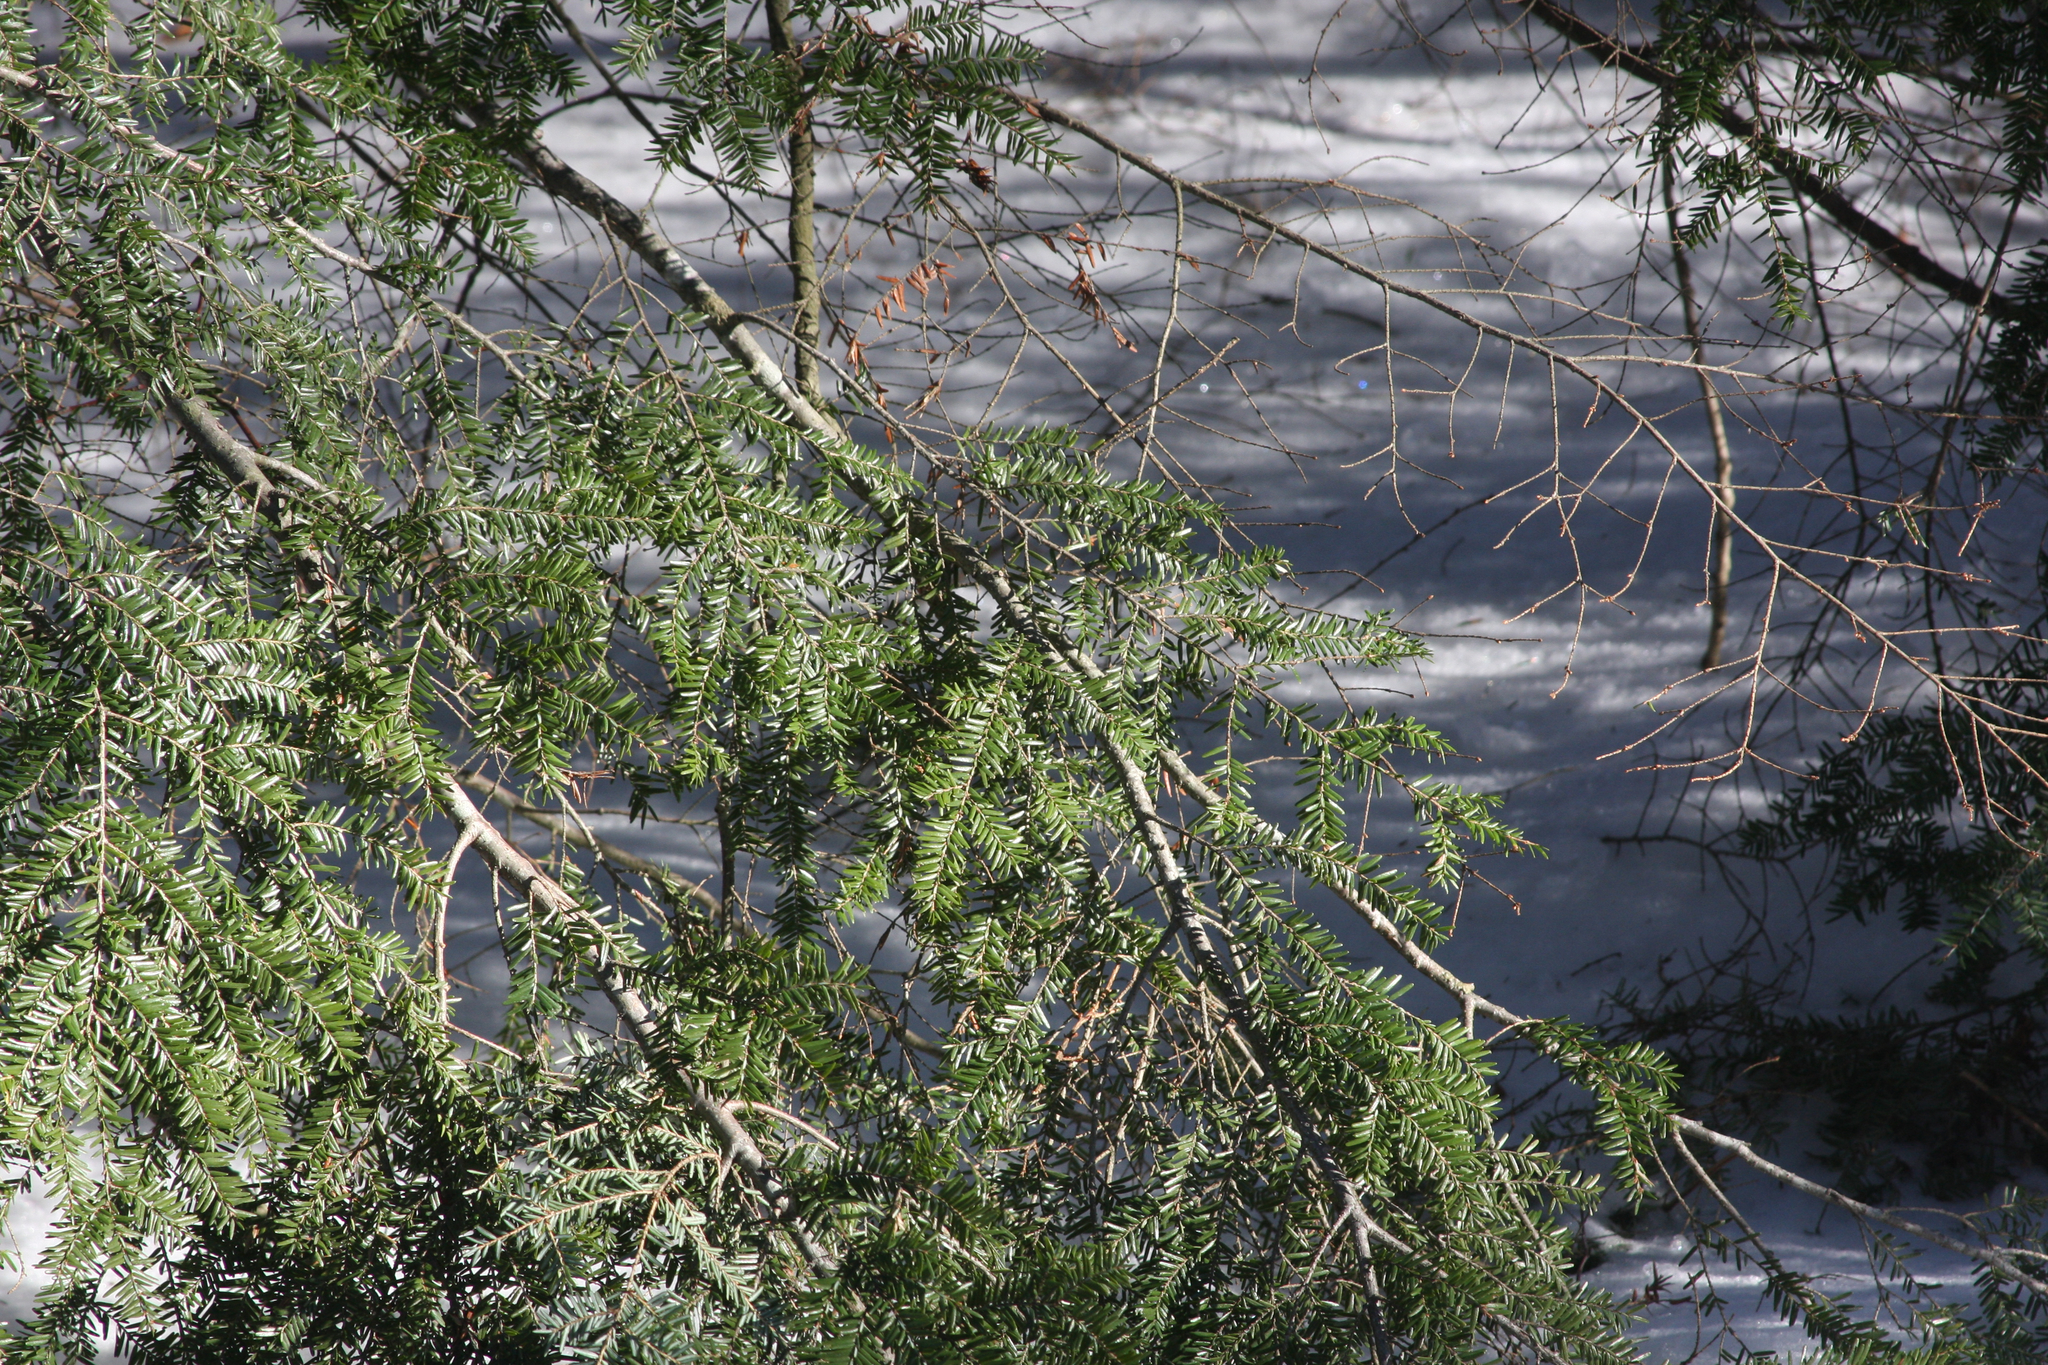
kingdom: Plantae
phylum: Tracheophyta
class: Pinopsida
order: Pinales
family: Pinaceae
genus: Tsuga
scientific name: Tsuga canadensis
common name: Eastern hemlock
